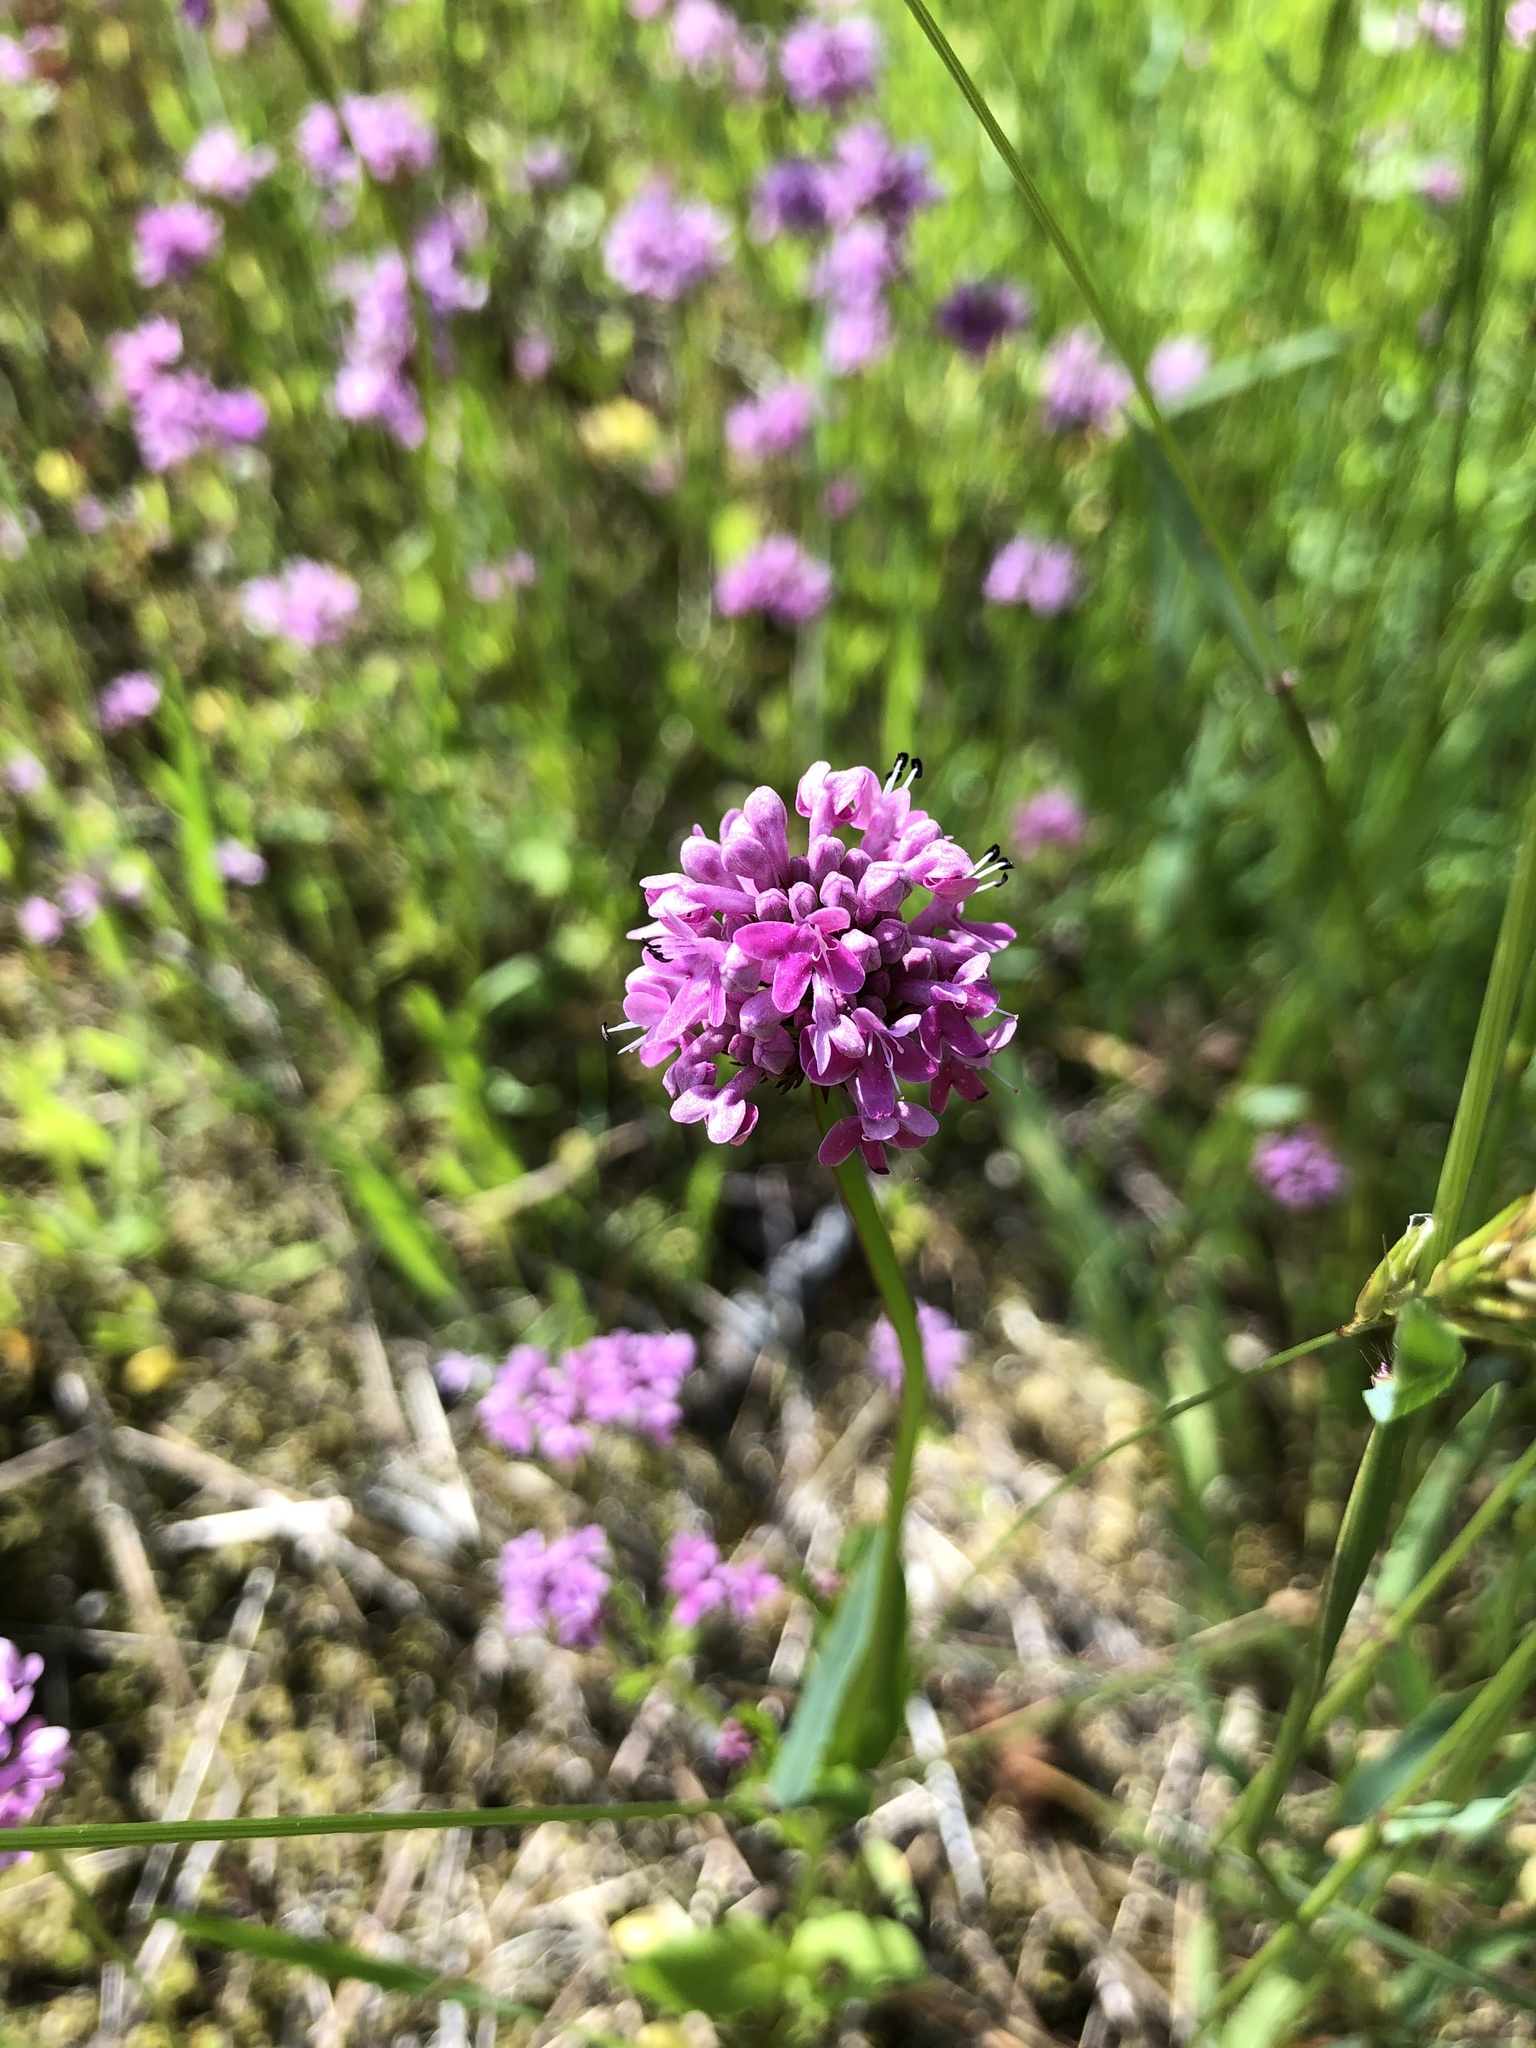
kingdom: Plantae
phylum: Tracheophyta
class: Magnoliopsida
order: Dipsacales
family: Caprifoliaceae
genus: Plectritis
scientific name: Plectritis congesta
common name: Pink plectritis
